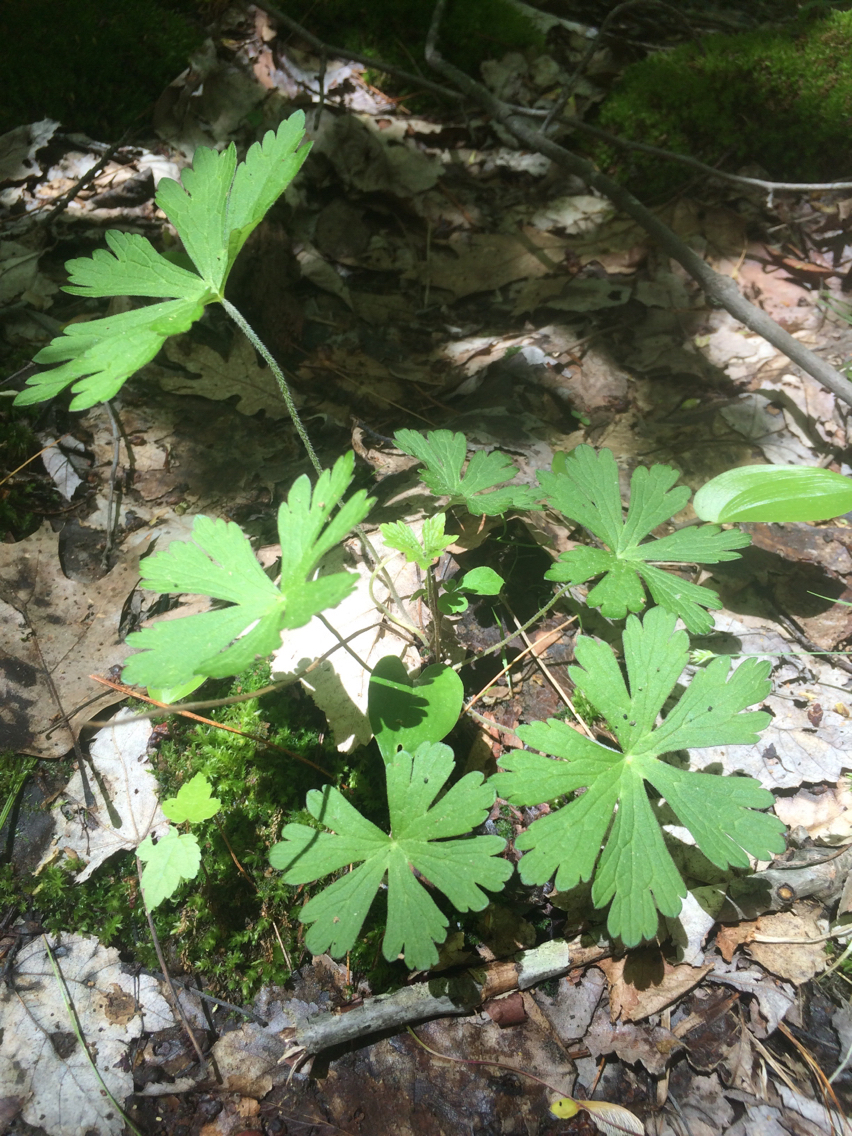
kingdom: Plantae
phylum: Tracheophyta
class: Magnoliopsida
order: Geraniales
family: Geraniaceae
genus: Geranium
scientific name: Geranium maculatum
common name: Spotted geranium
